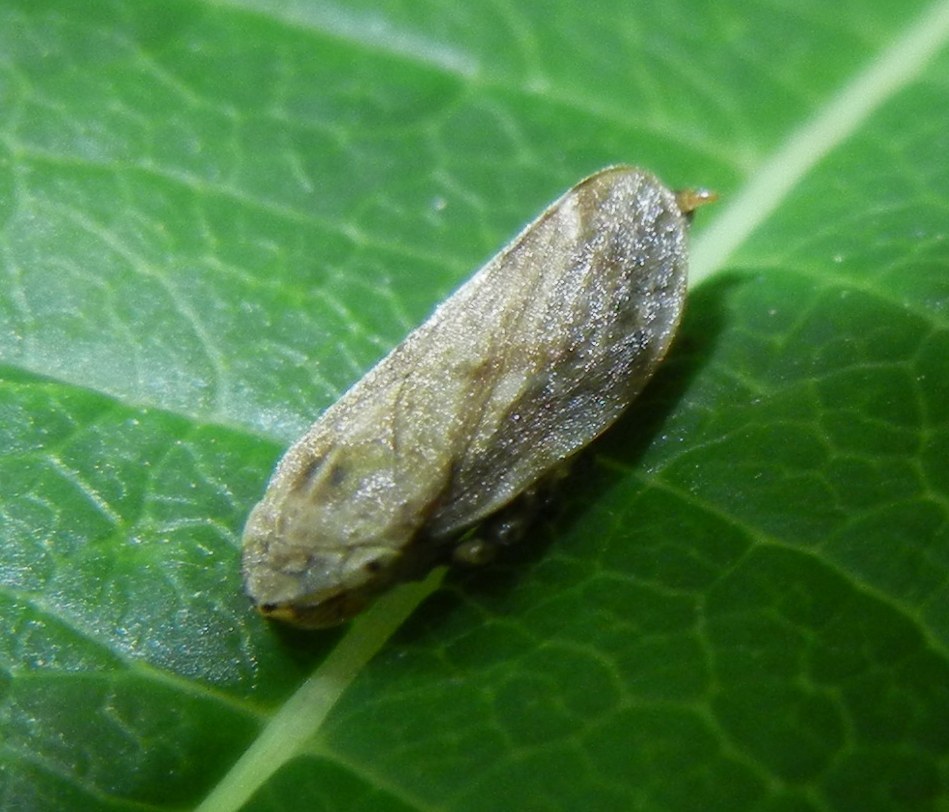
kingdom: Animalia
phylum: Arthropoda
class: Insecta
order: Hemiptera
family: Aphrophoridae
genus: Philaenus
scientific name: Philaenus spumarius
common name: Meadow spittlebug
